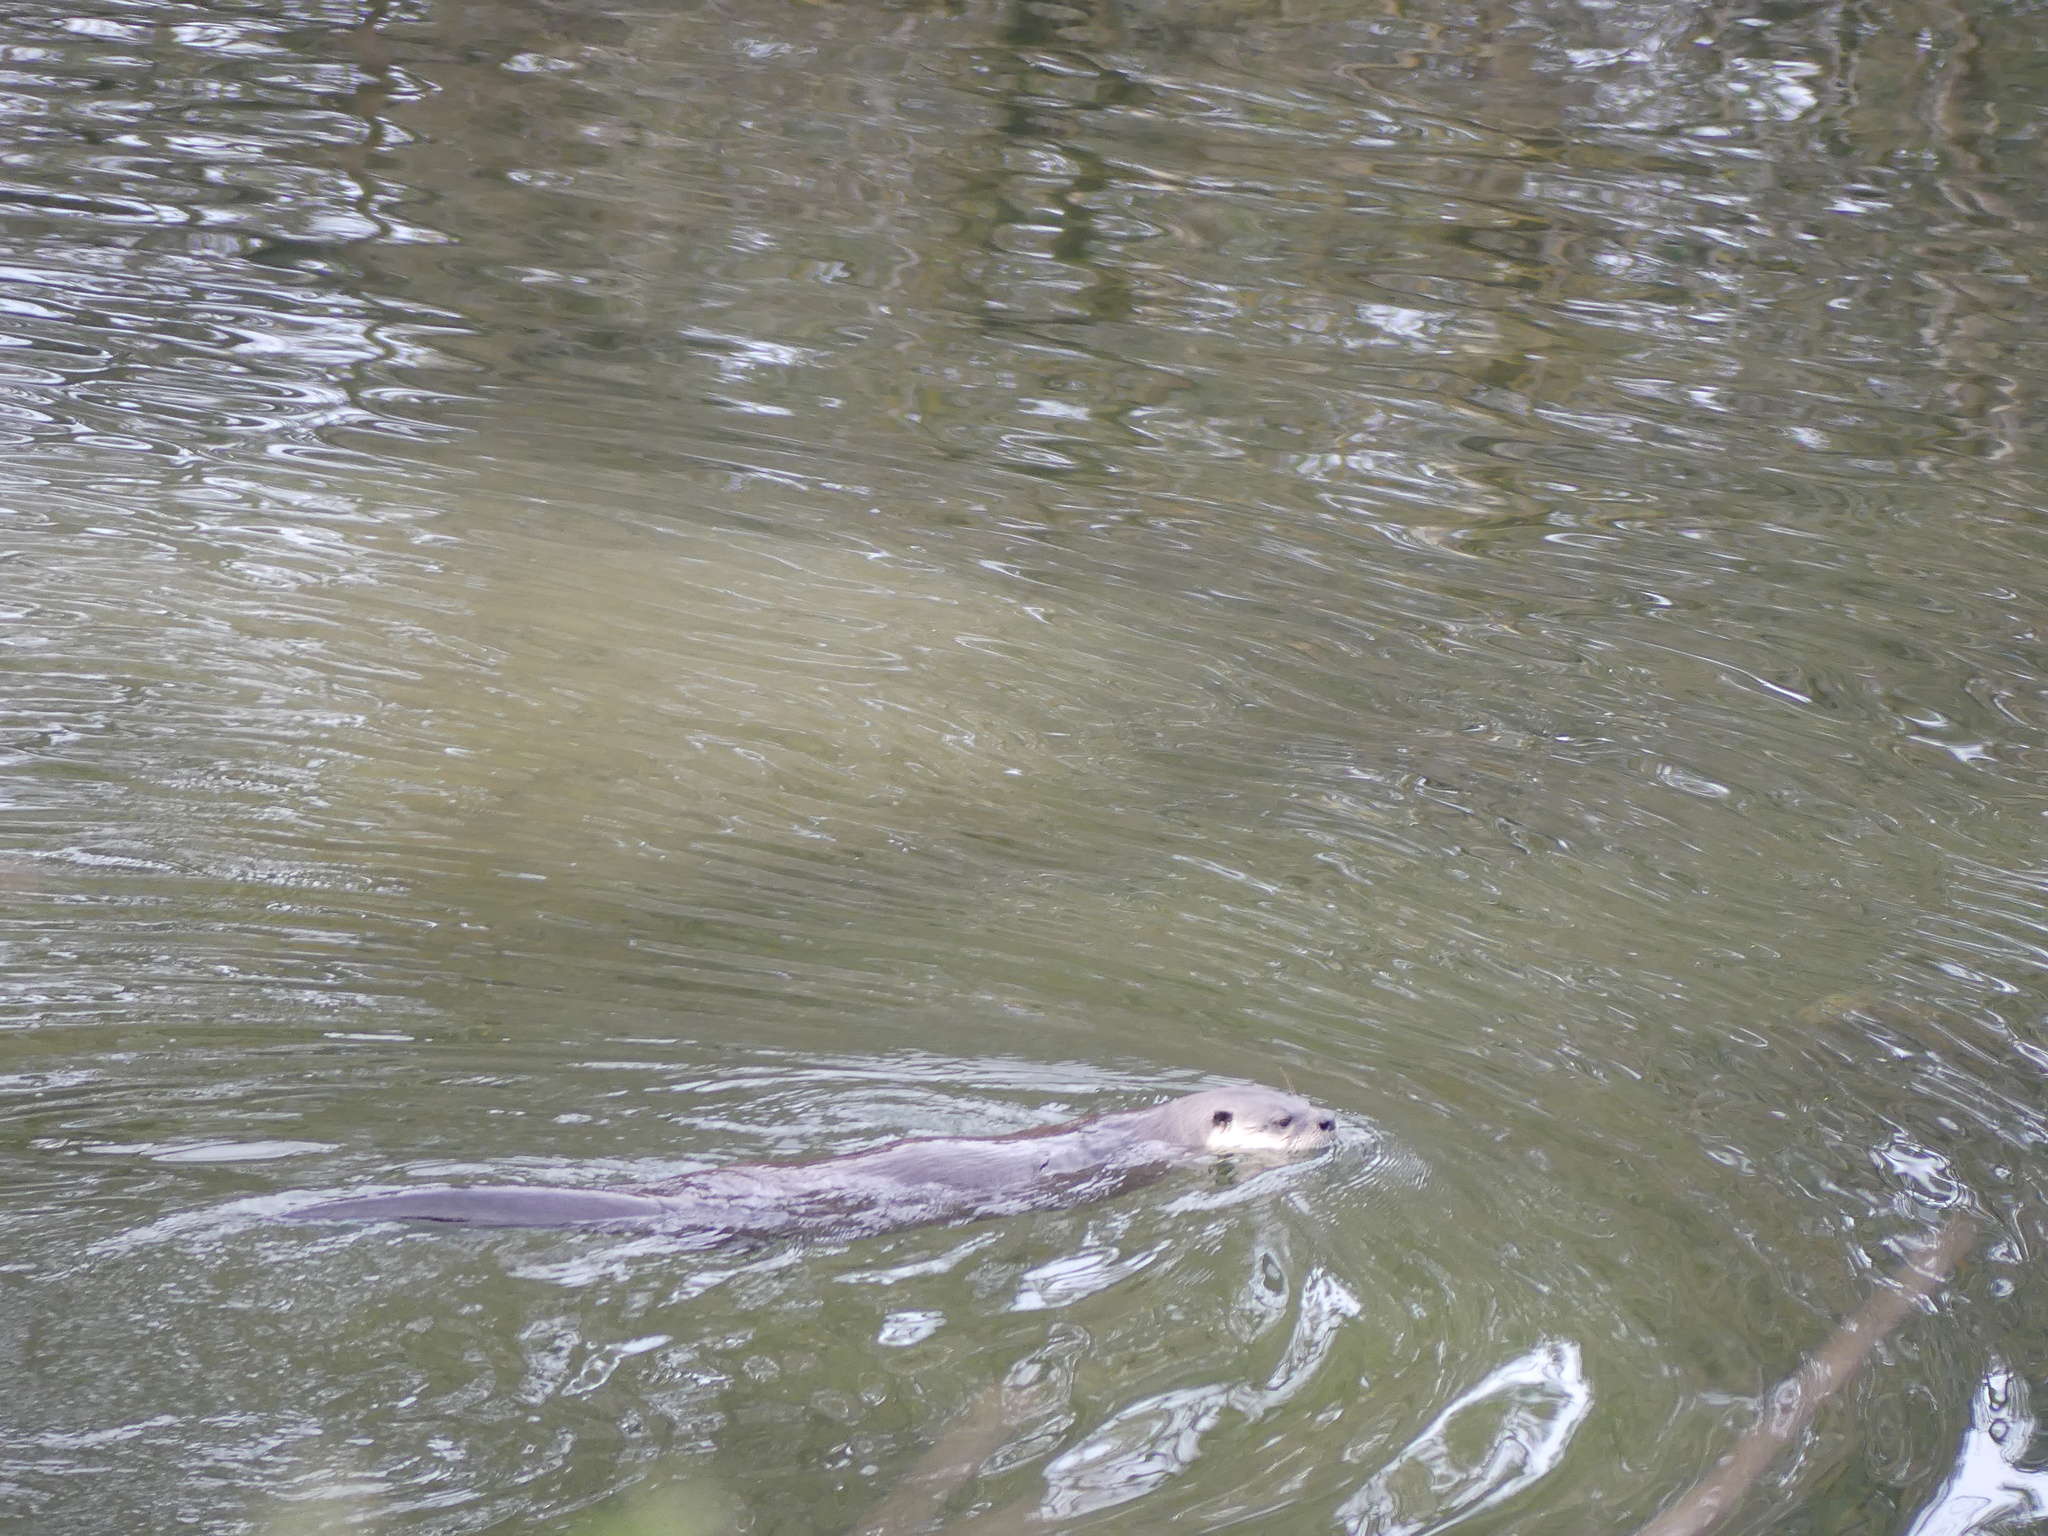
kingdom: Animalia
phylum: Chordata
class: Mammalia
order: Carnivora
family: Mustelidae
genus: Lontra
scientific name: Lontra canadensis
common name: North american river otter
